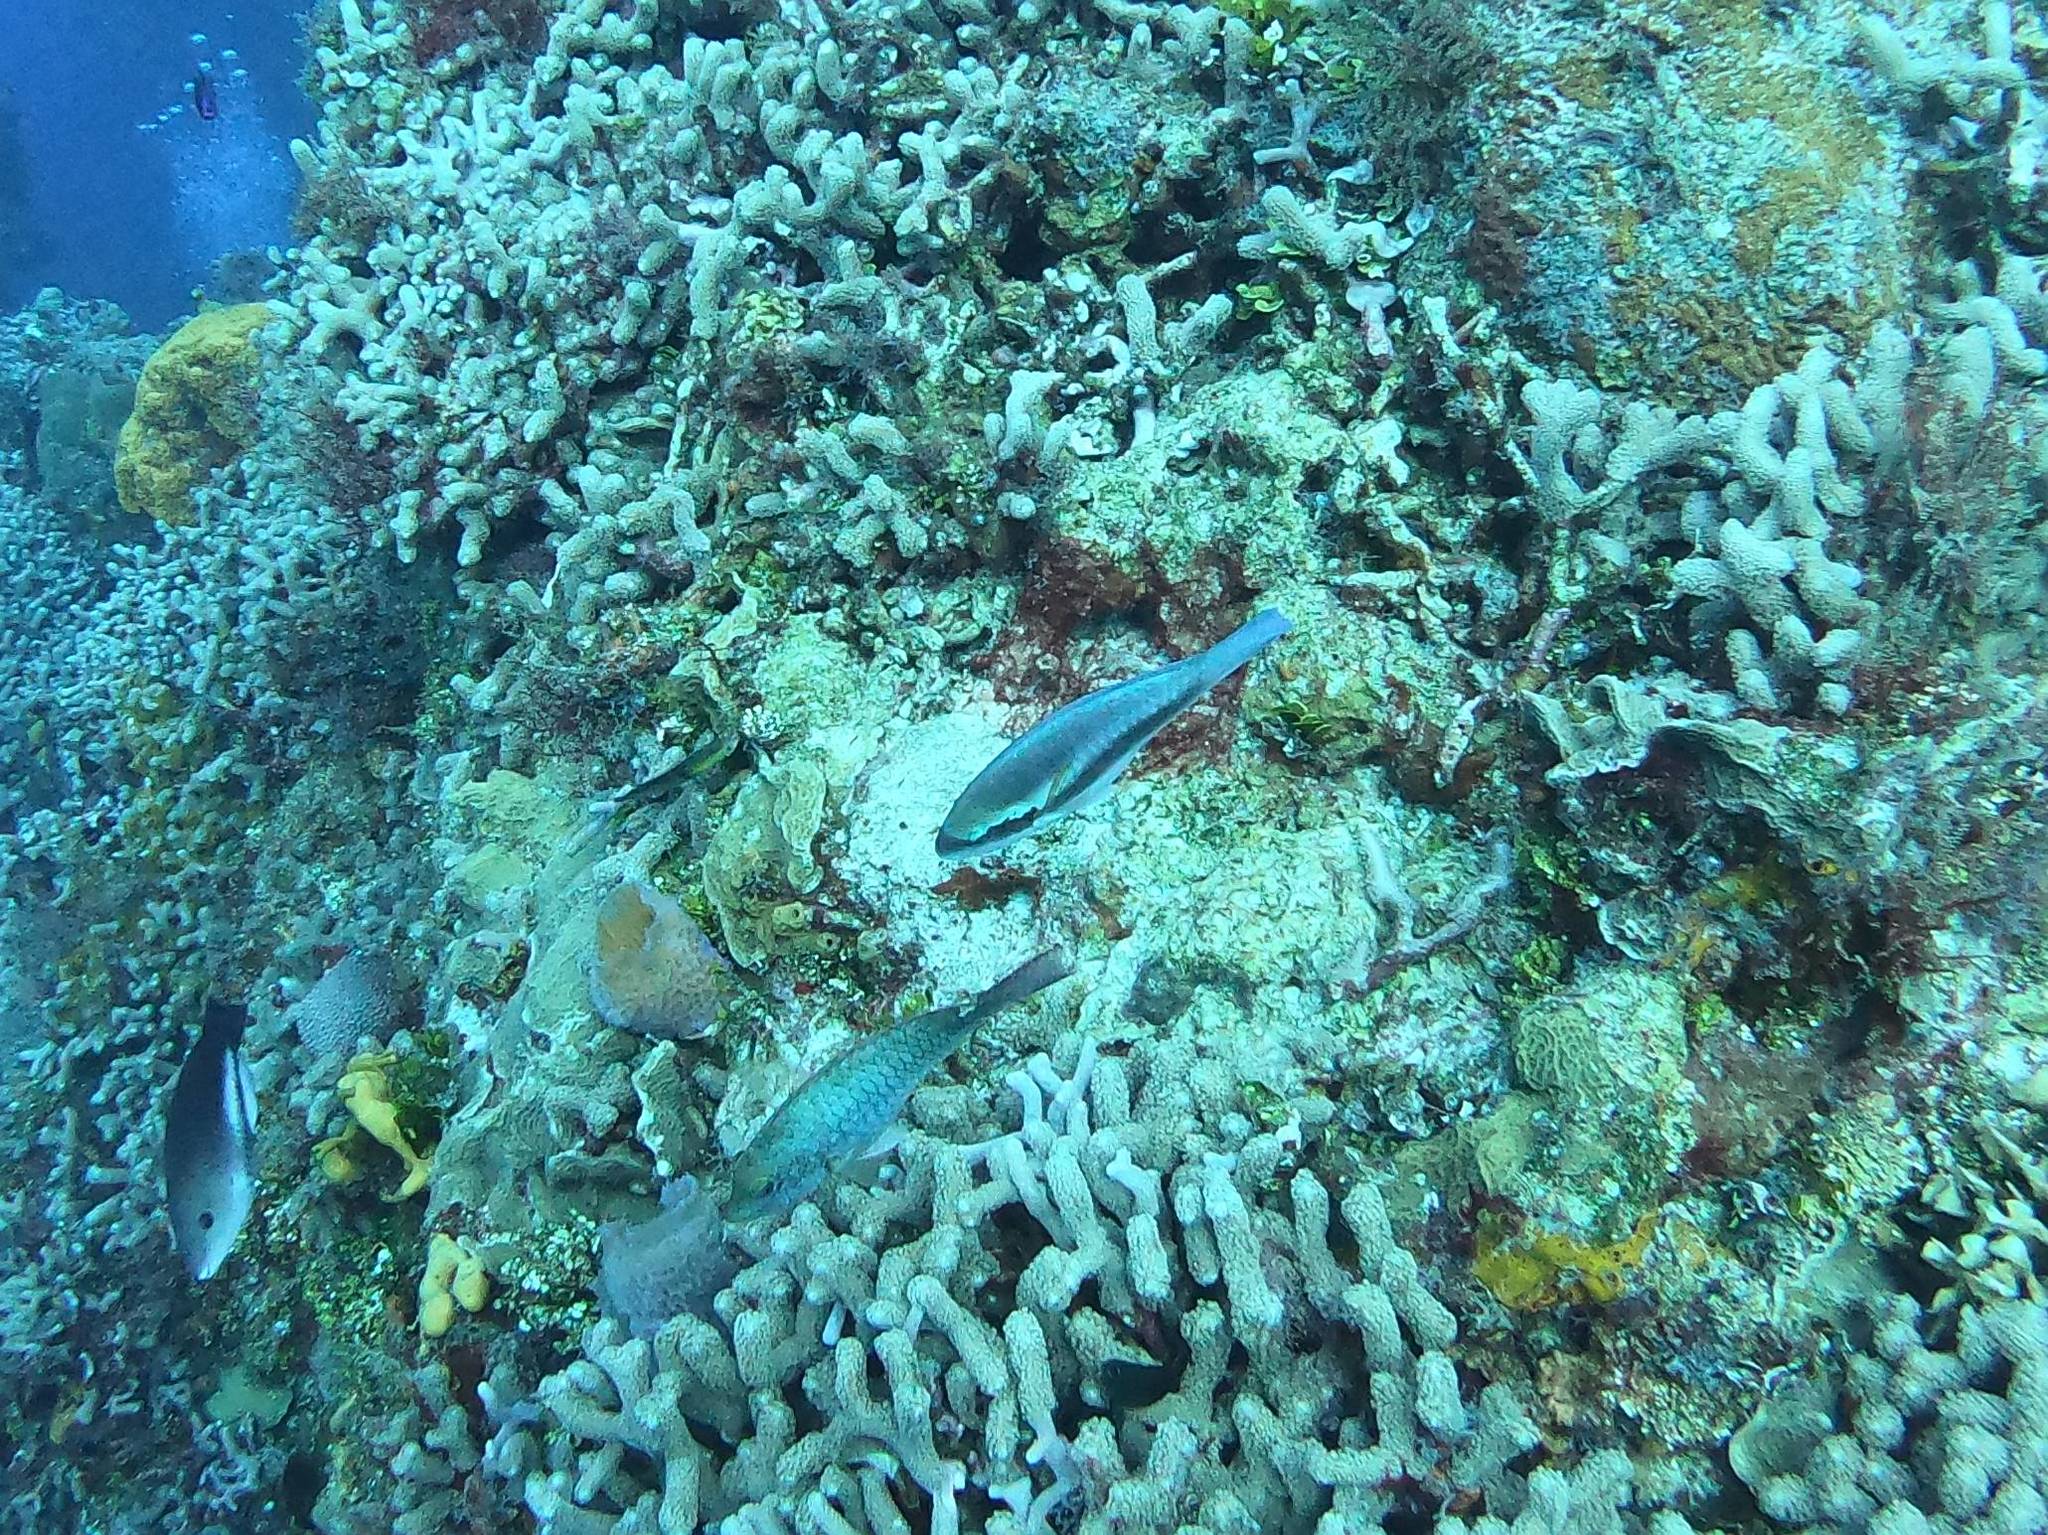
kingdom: Animalia
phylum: Chordata
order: Perciformes
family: Scaridae
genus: Scarus
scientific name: Scarus iseri
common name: Striped parrotfish
